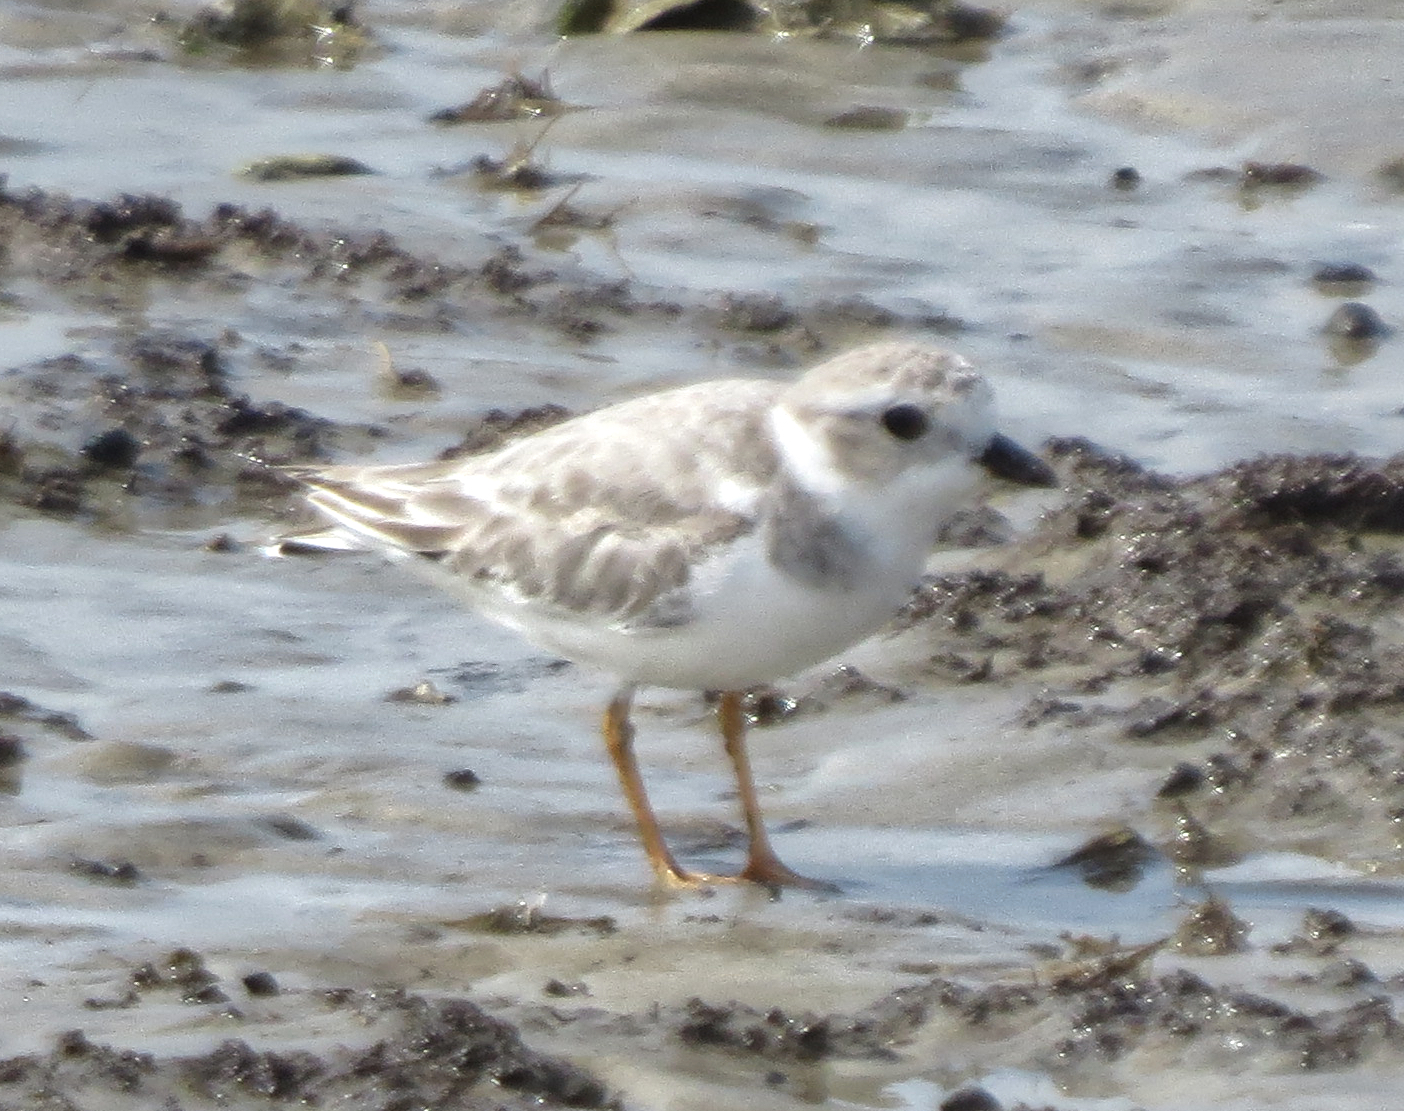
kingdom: Animalia
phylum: Chordata
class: Aves
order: Charadriiformes
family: Charadriidae
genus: Charadrius
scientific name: Charadrius melodus
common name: Piping plover
